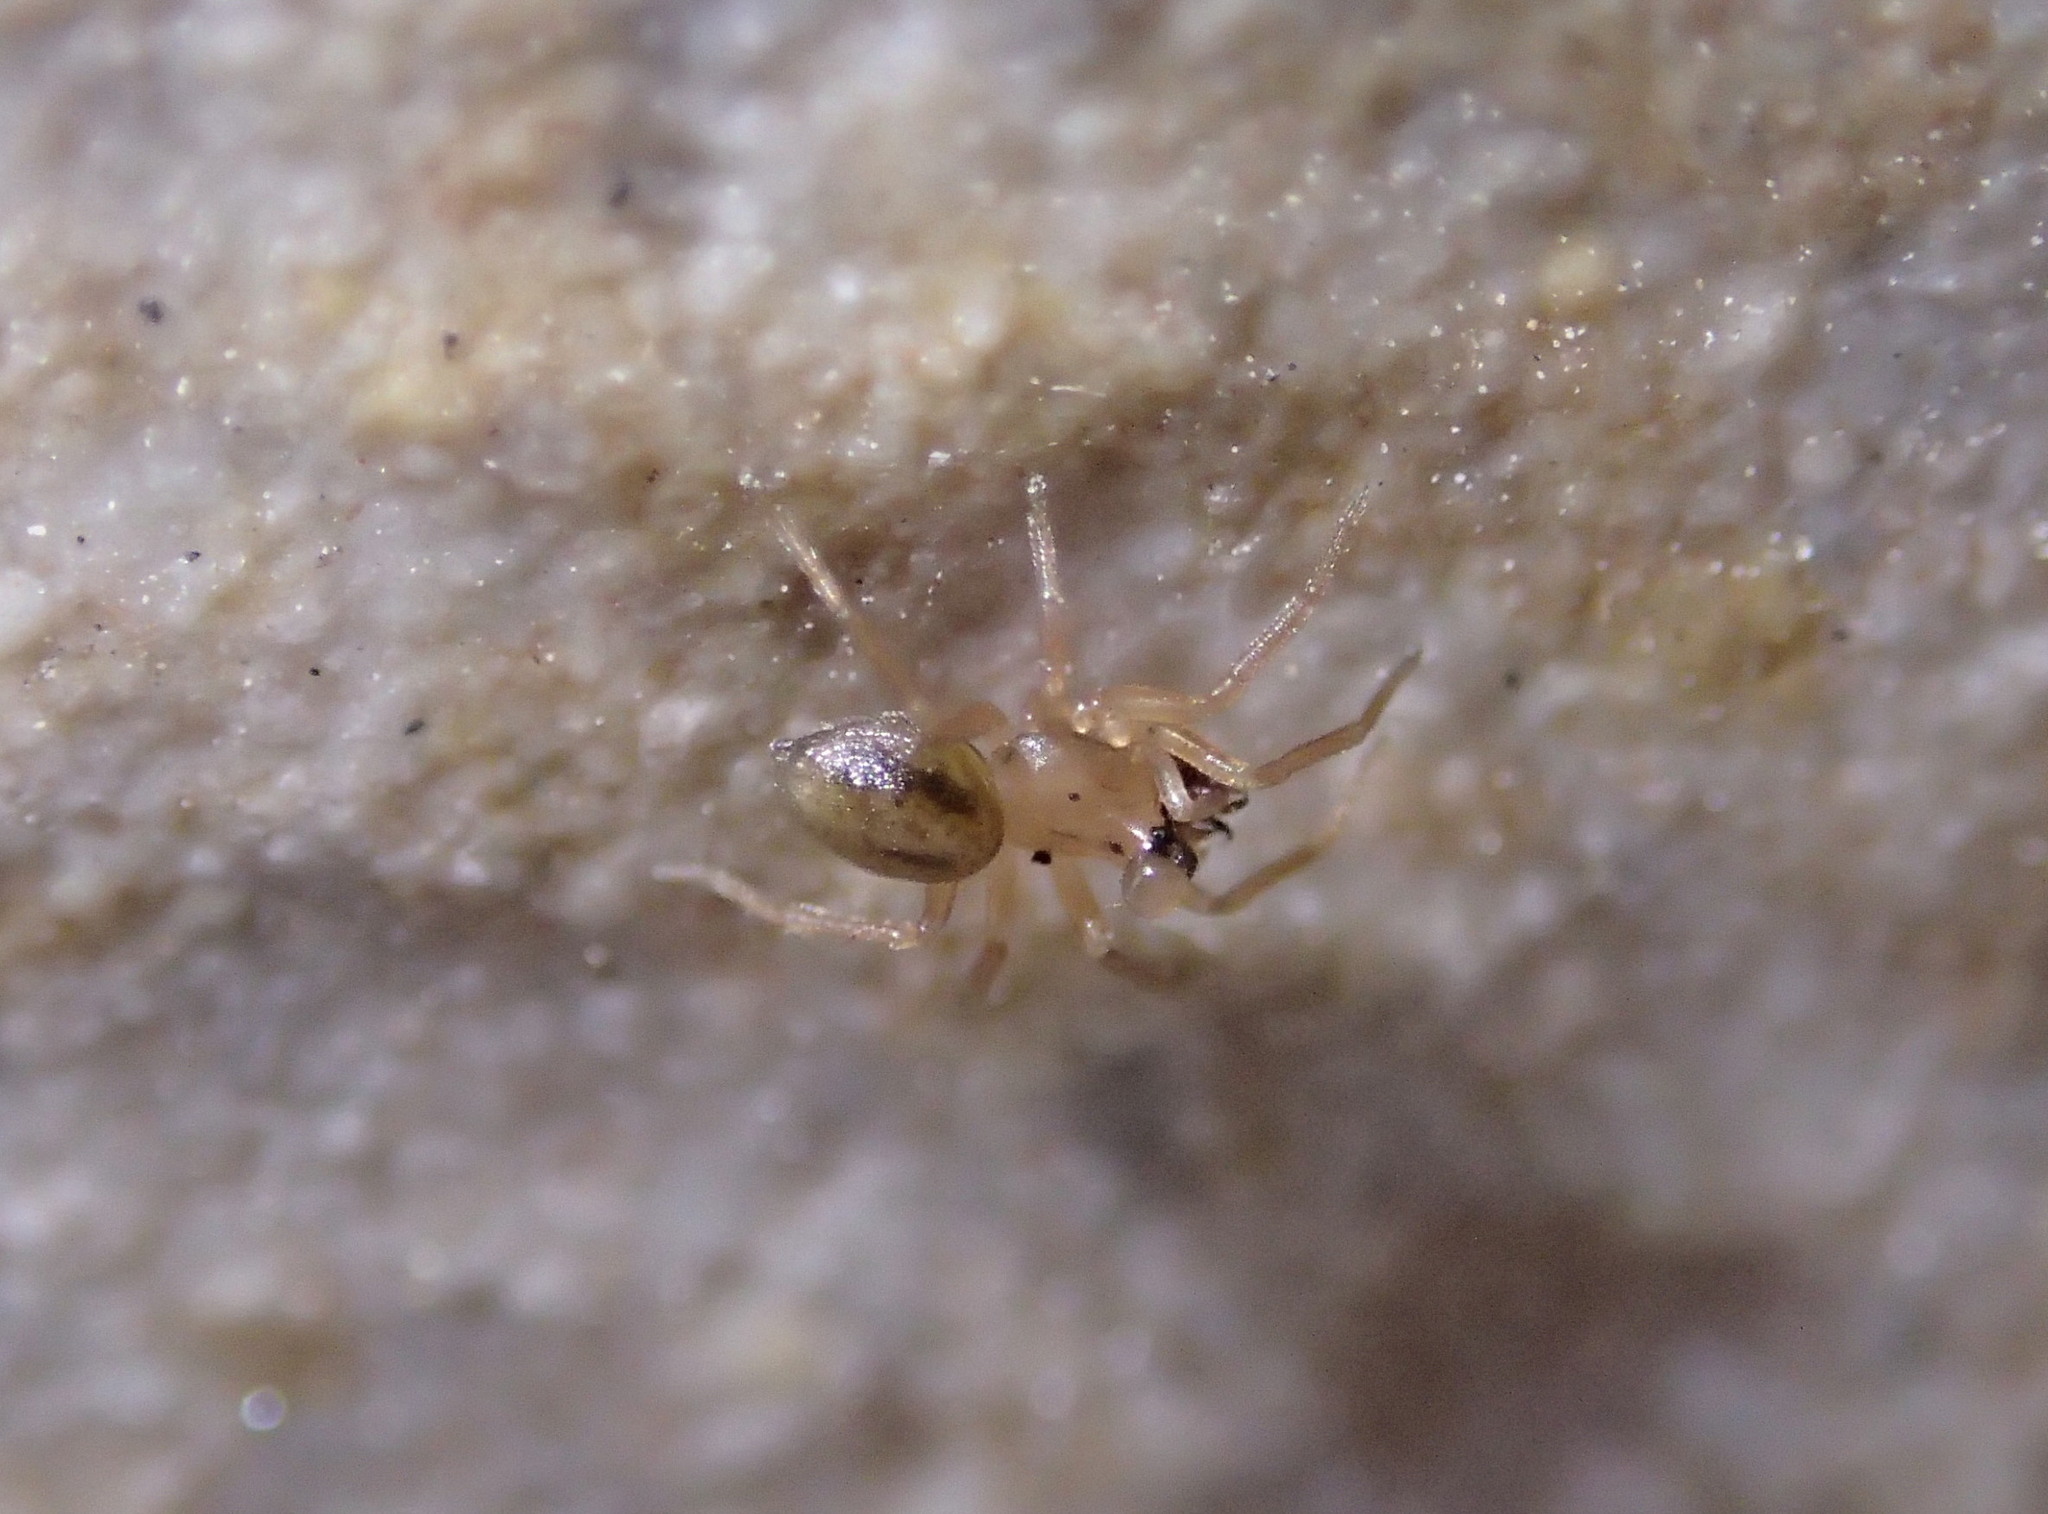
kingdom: Animalia
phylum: Arthropoda
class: Arachnida
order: Araneae
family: Linyphiidae
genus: Minicia
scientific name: Minicia marginella
